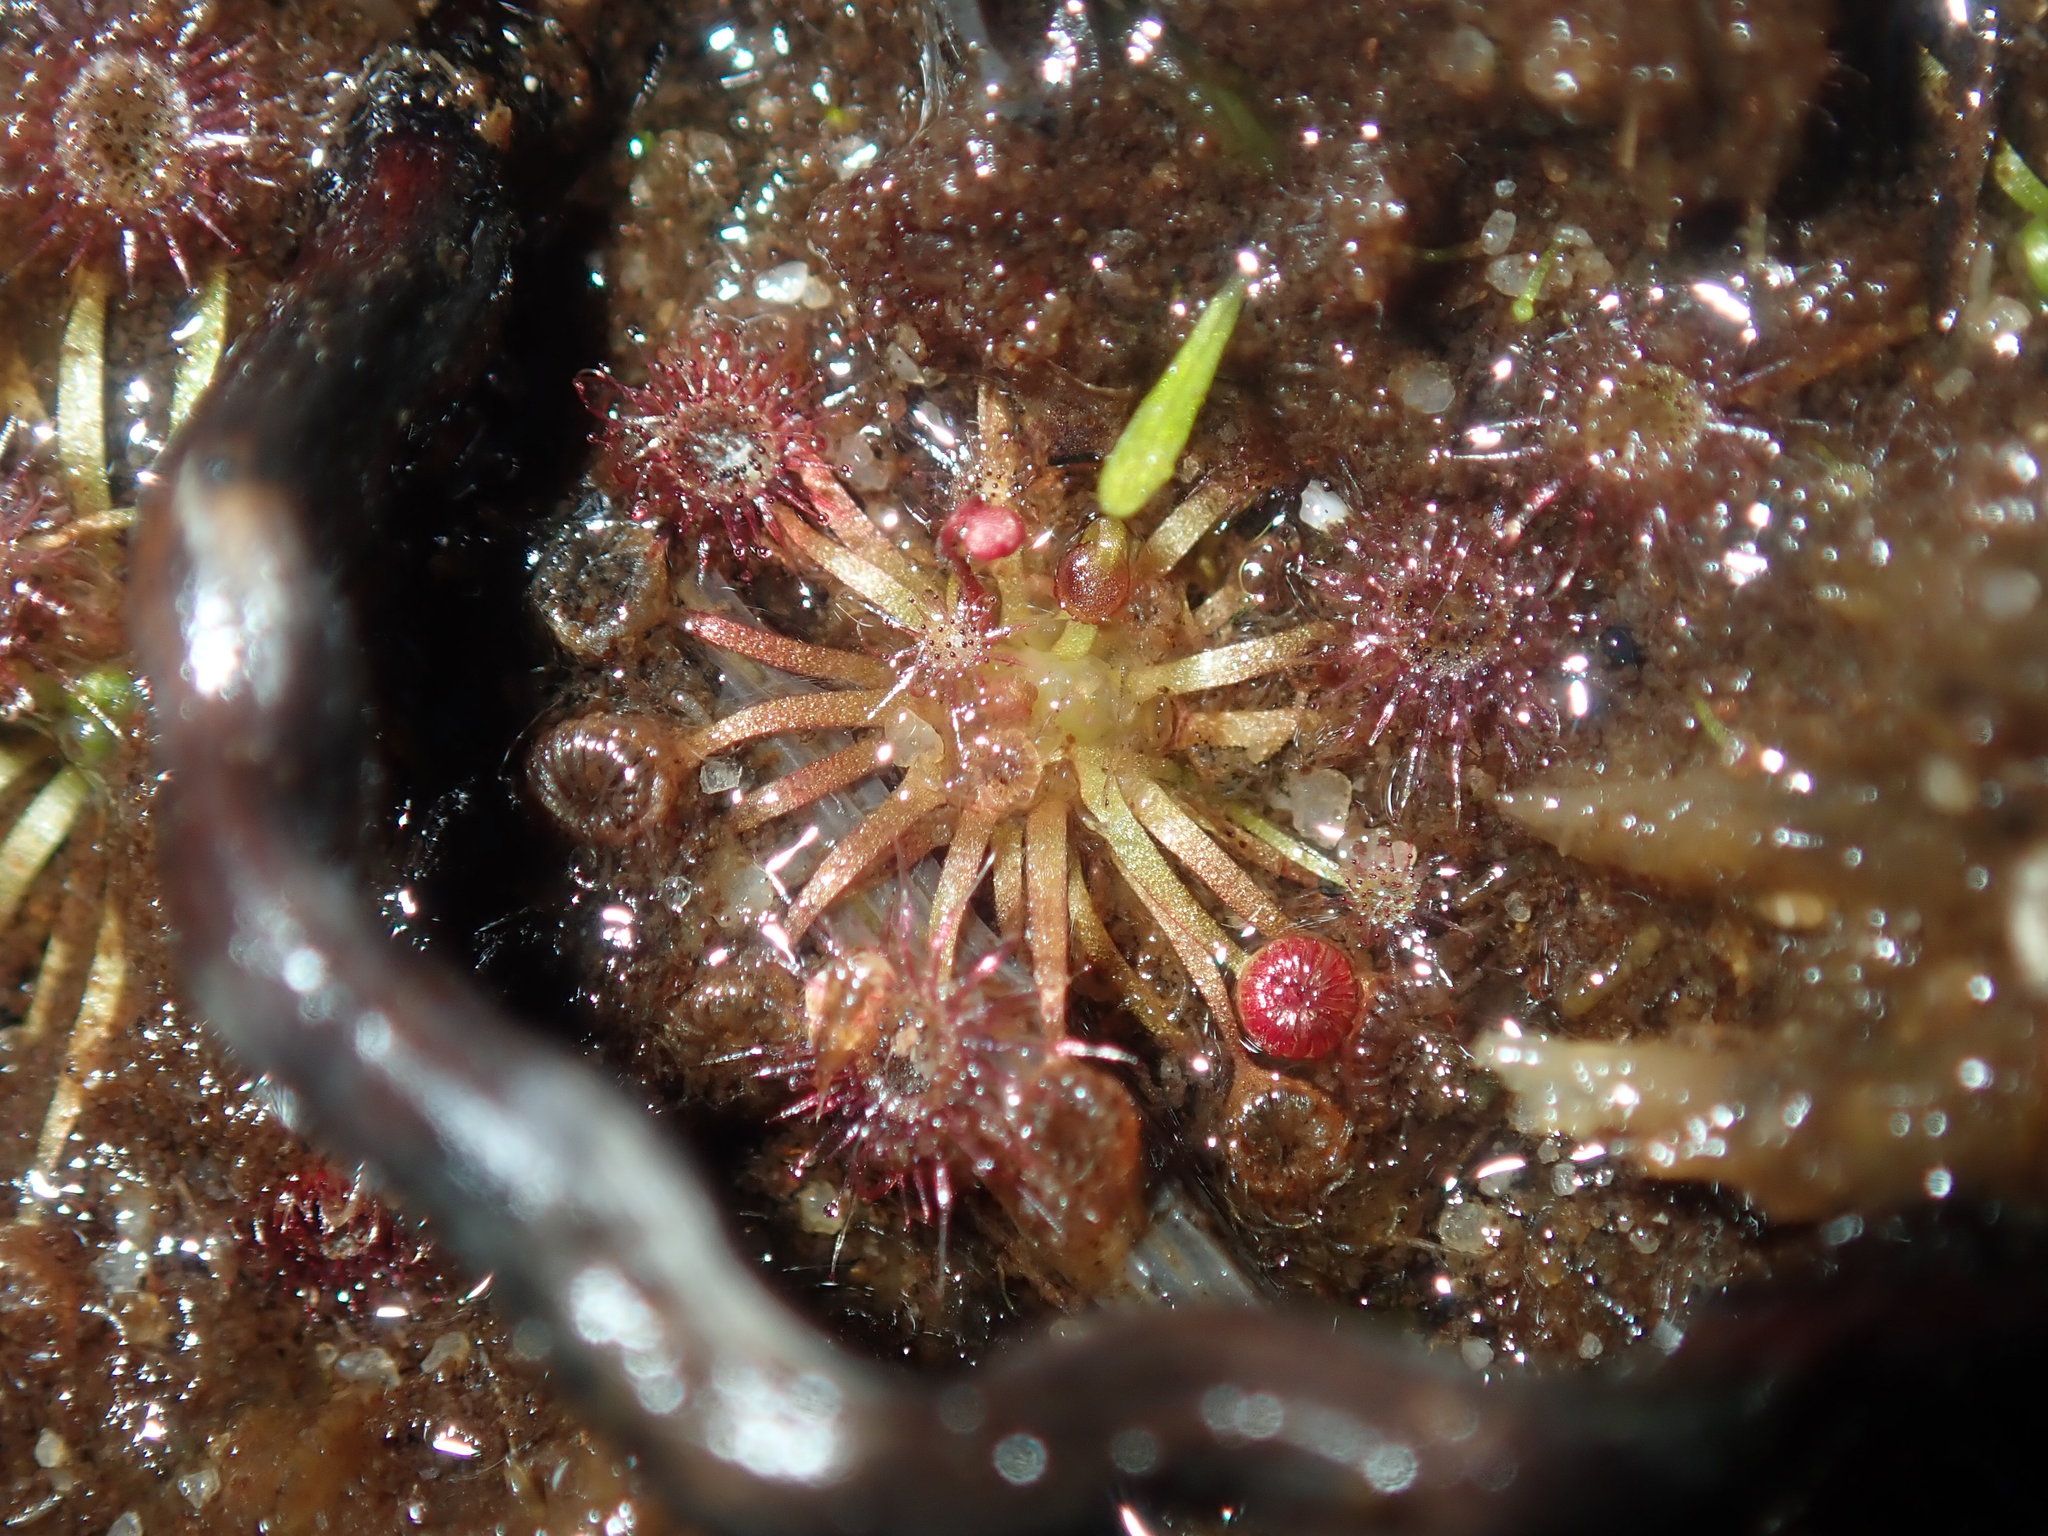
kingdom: Plantae
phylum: Tracheophyta
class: Magnoliopsida
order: Caryophyllales
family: Droseraceae
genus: Drosera
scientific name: Drosera pygmaea
